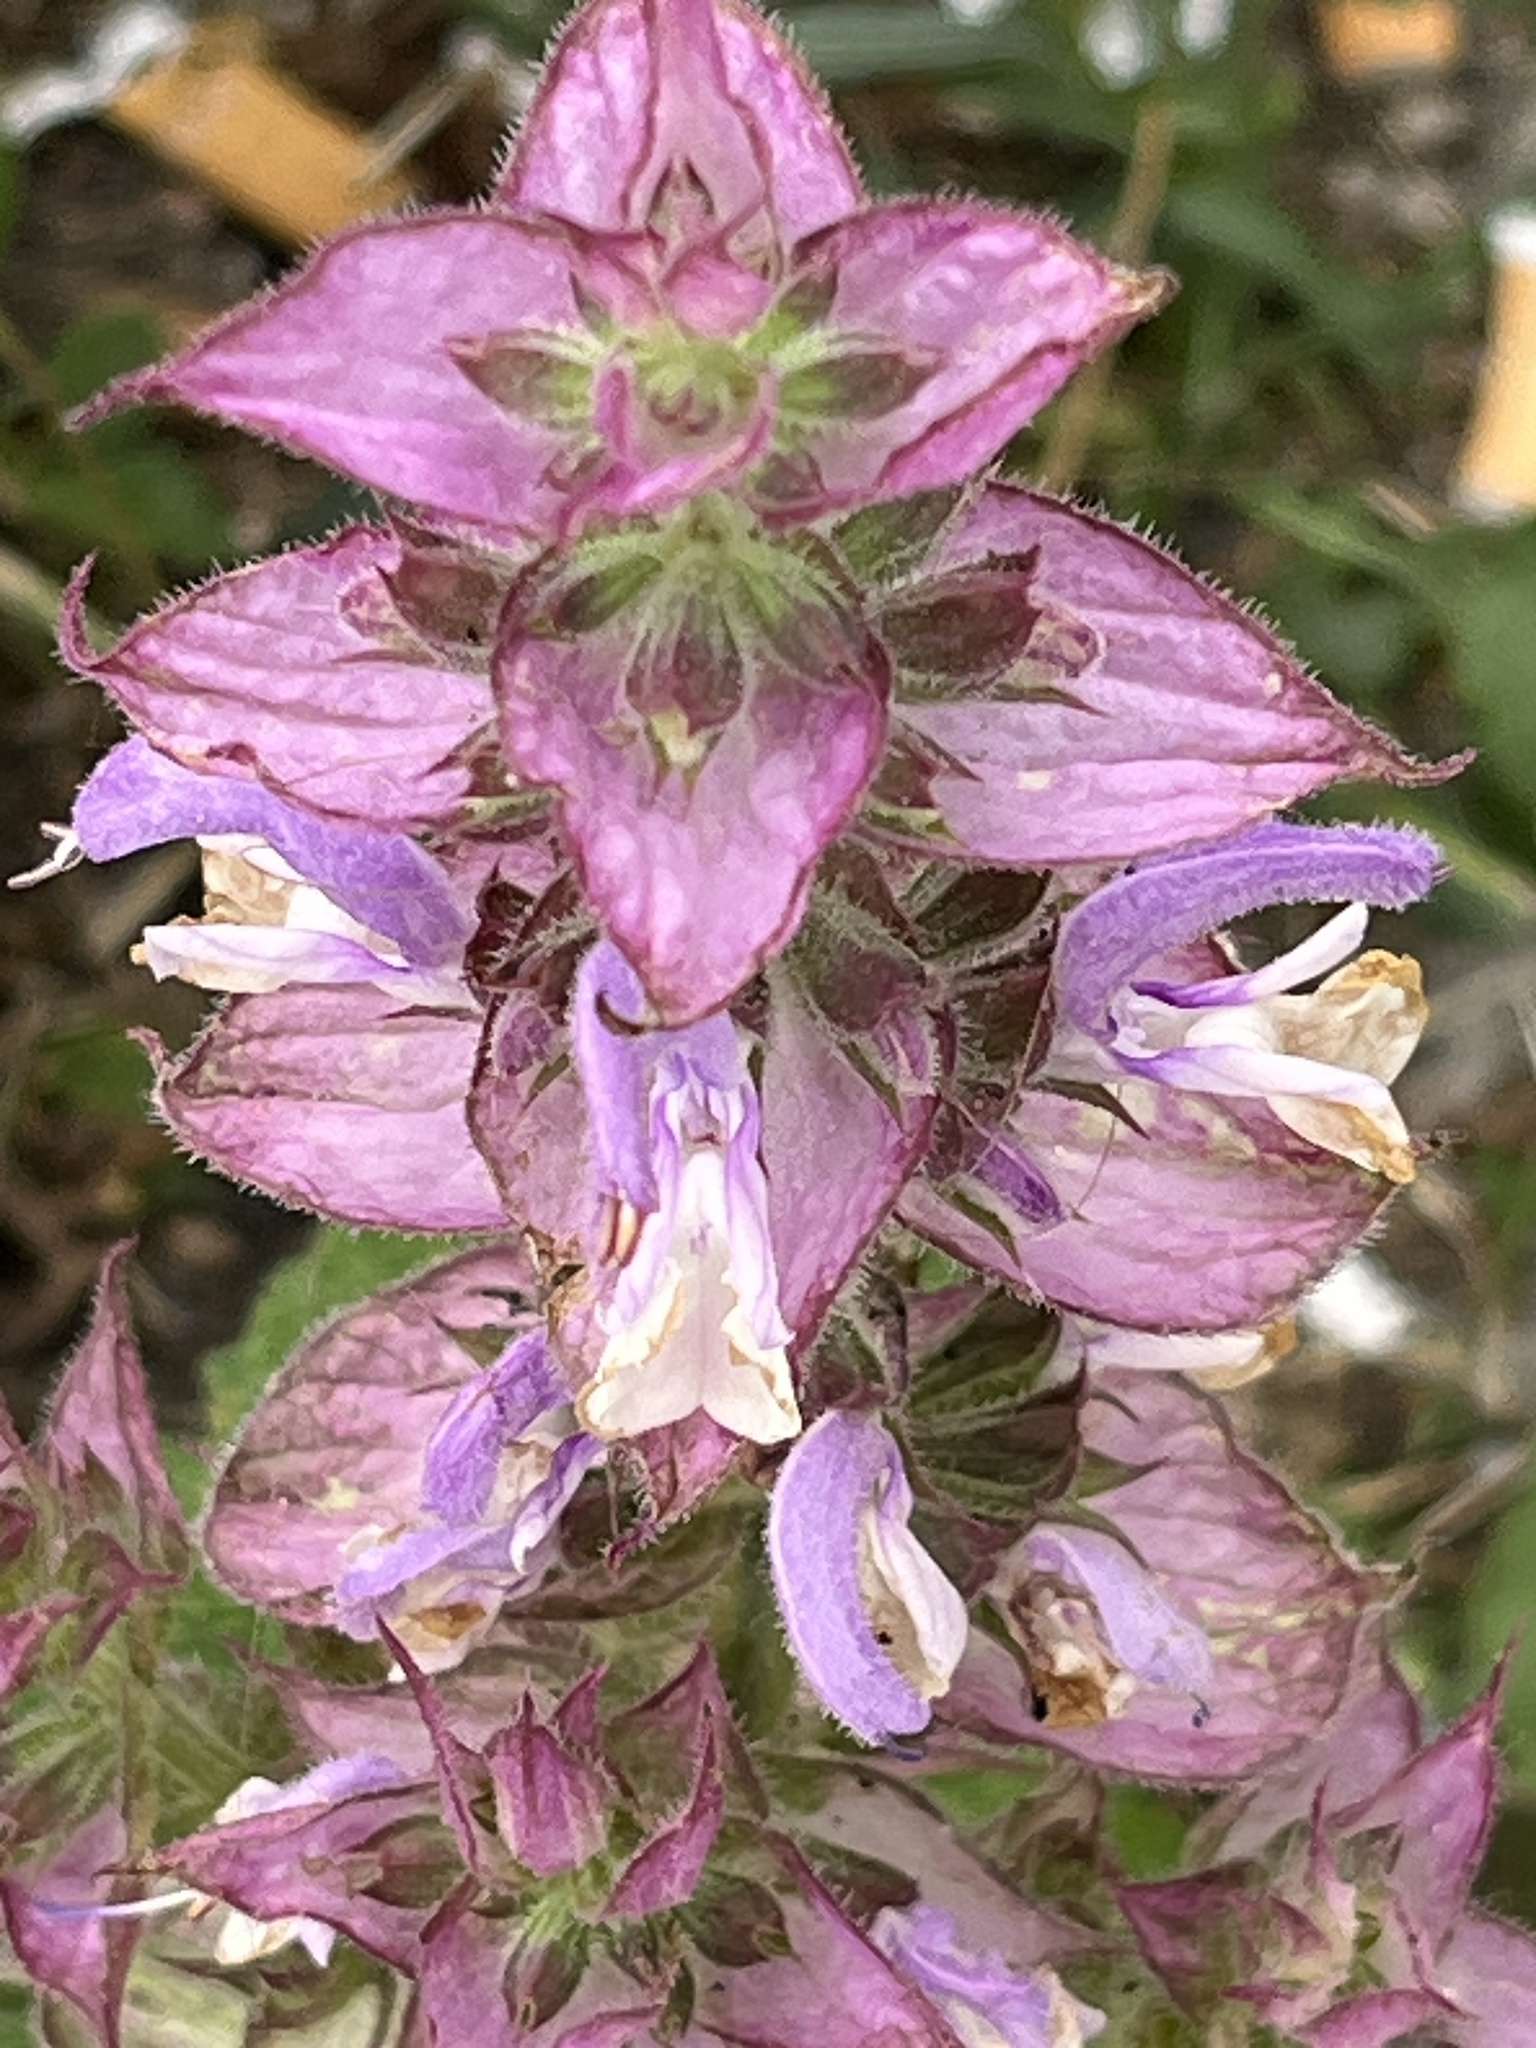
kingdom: Plantae
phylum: Tracheophyta
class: Magnoliopsida
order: Lamiales
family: Lamiaceae
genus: Salvia
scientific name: Salvia sclarea
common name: Clary
